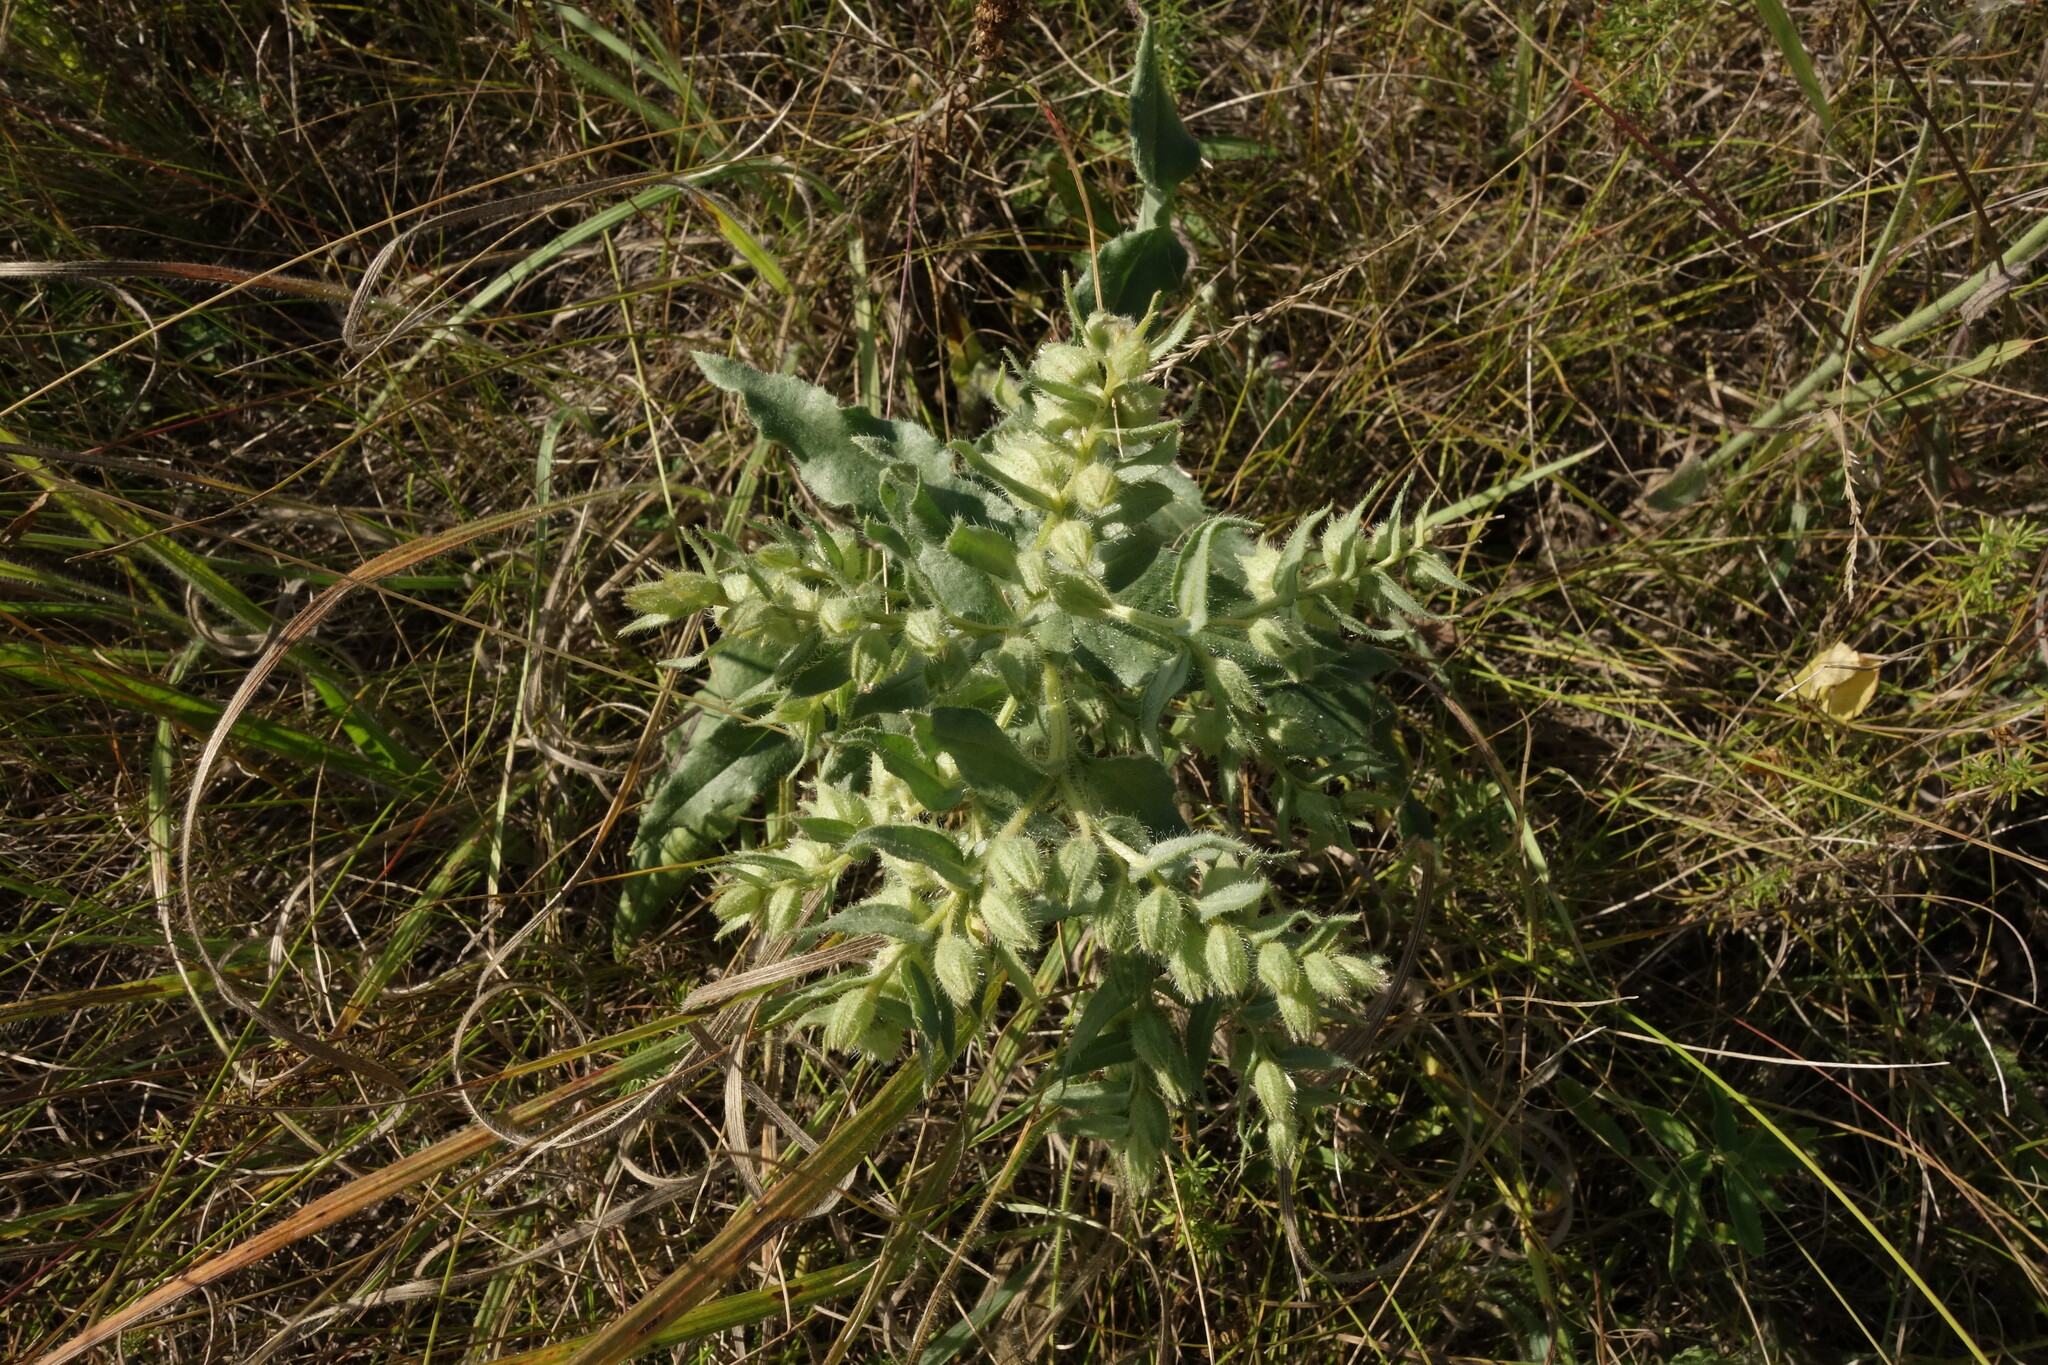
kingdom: Plantae
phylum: Tracheophyta
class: Magnoliopsida
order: Boraginales
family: Boraginaceae
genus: Nonea
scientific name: Nonea pulla
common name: Brown nonea
